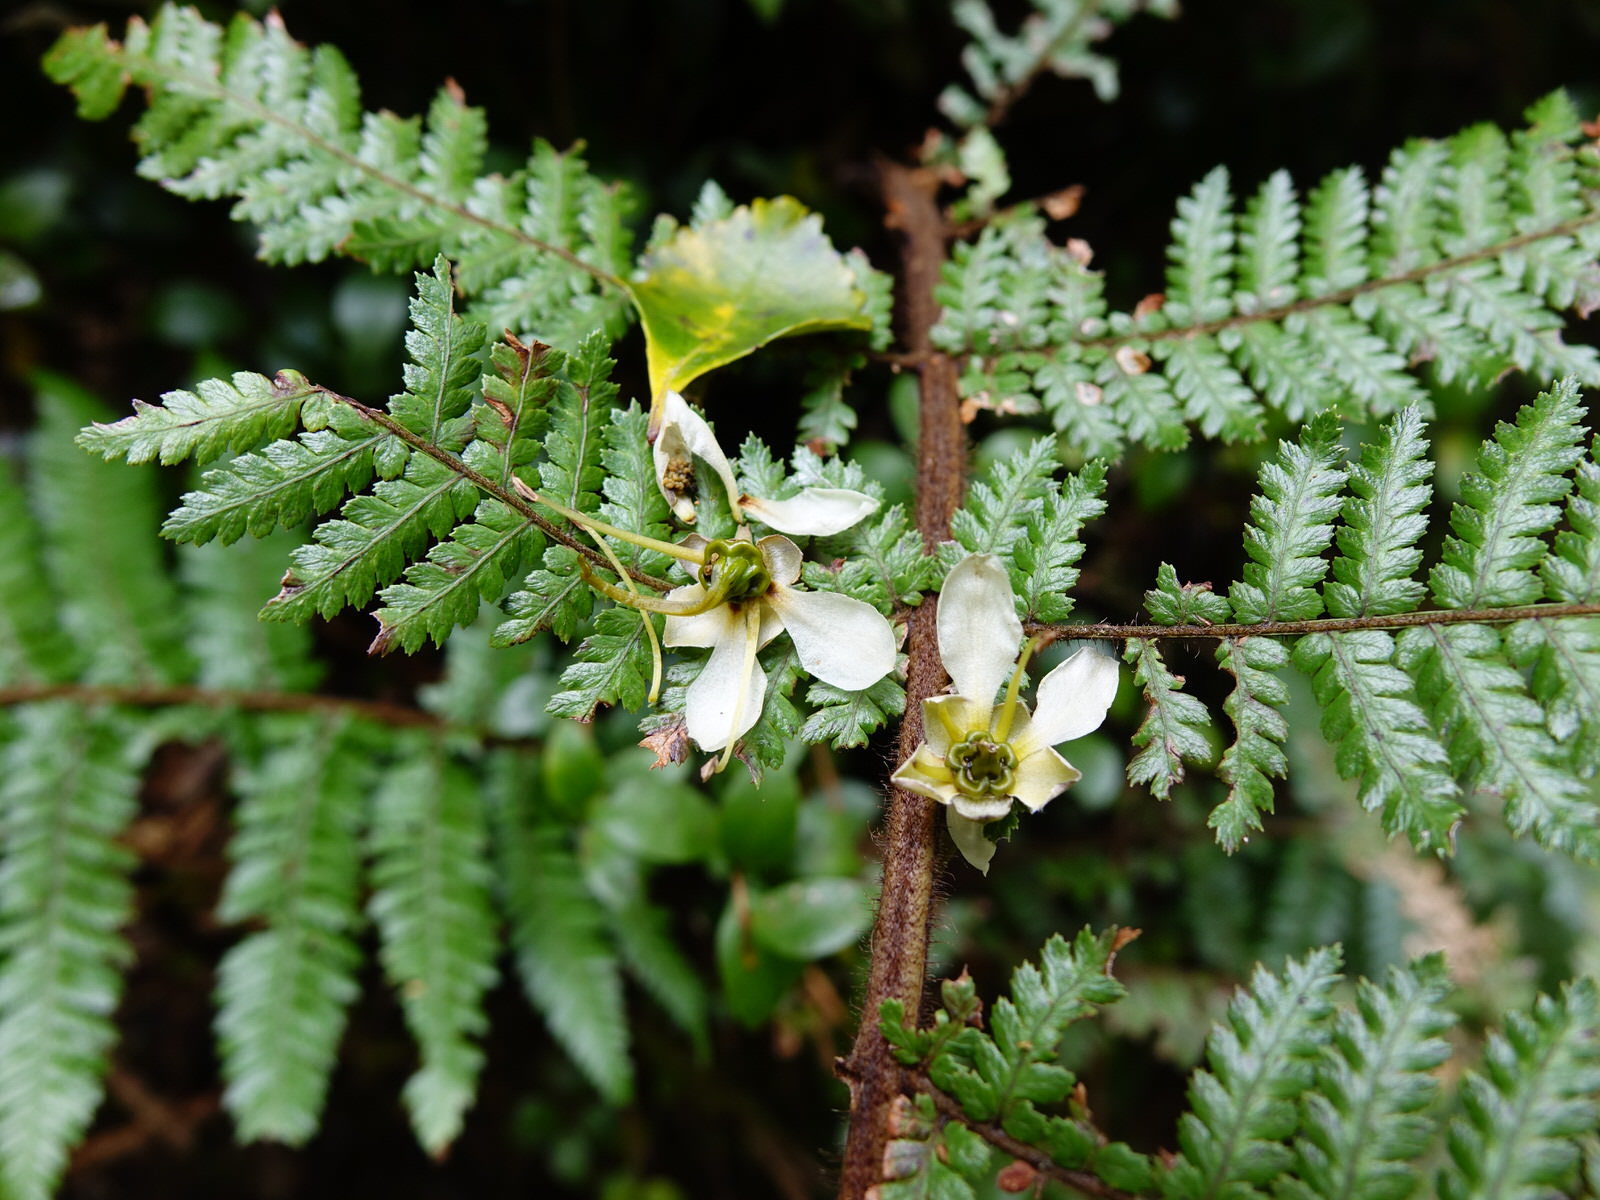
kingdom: Plantae
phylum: Tracheophyta
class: Magnoliopsida
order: Crossosomatales
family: Ixerbaceae
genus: Ixerba
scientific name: Ixerba brexioides
